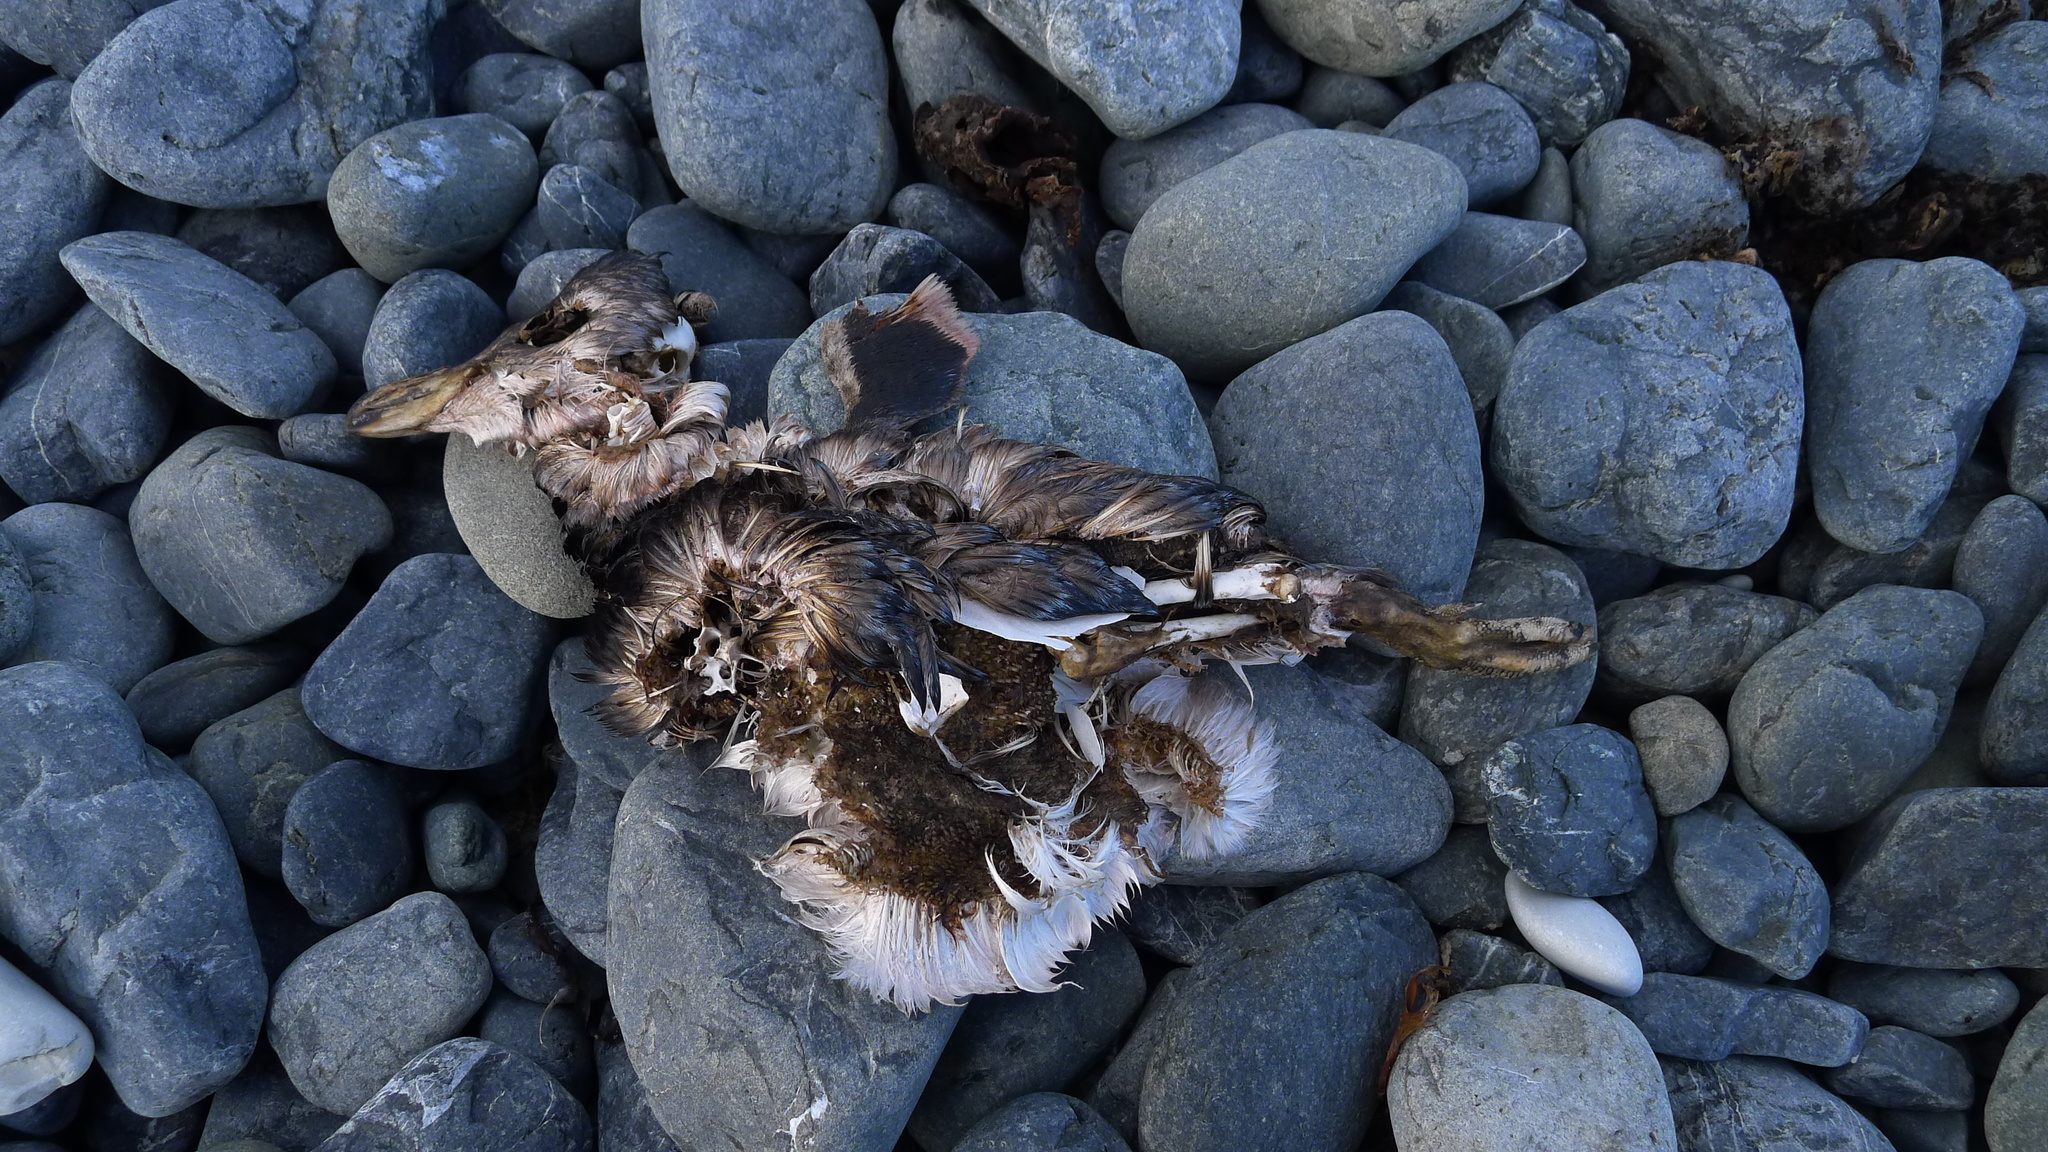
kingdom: Animalia
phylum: Chordata
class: Aves
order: Sphenisciformes
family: Spheniscidae
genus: Eudyptula
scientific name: Eudyptula minor
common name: Little penguin
